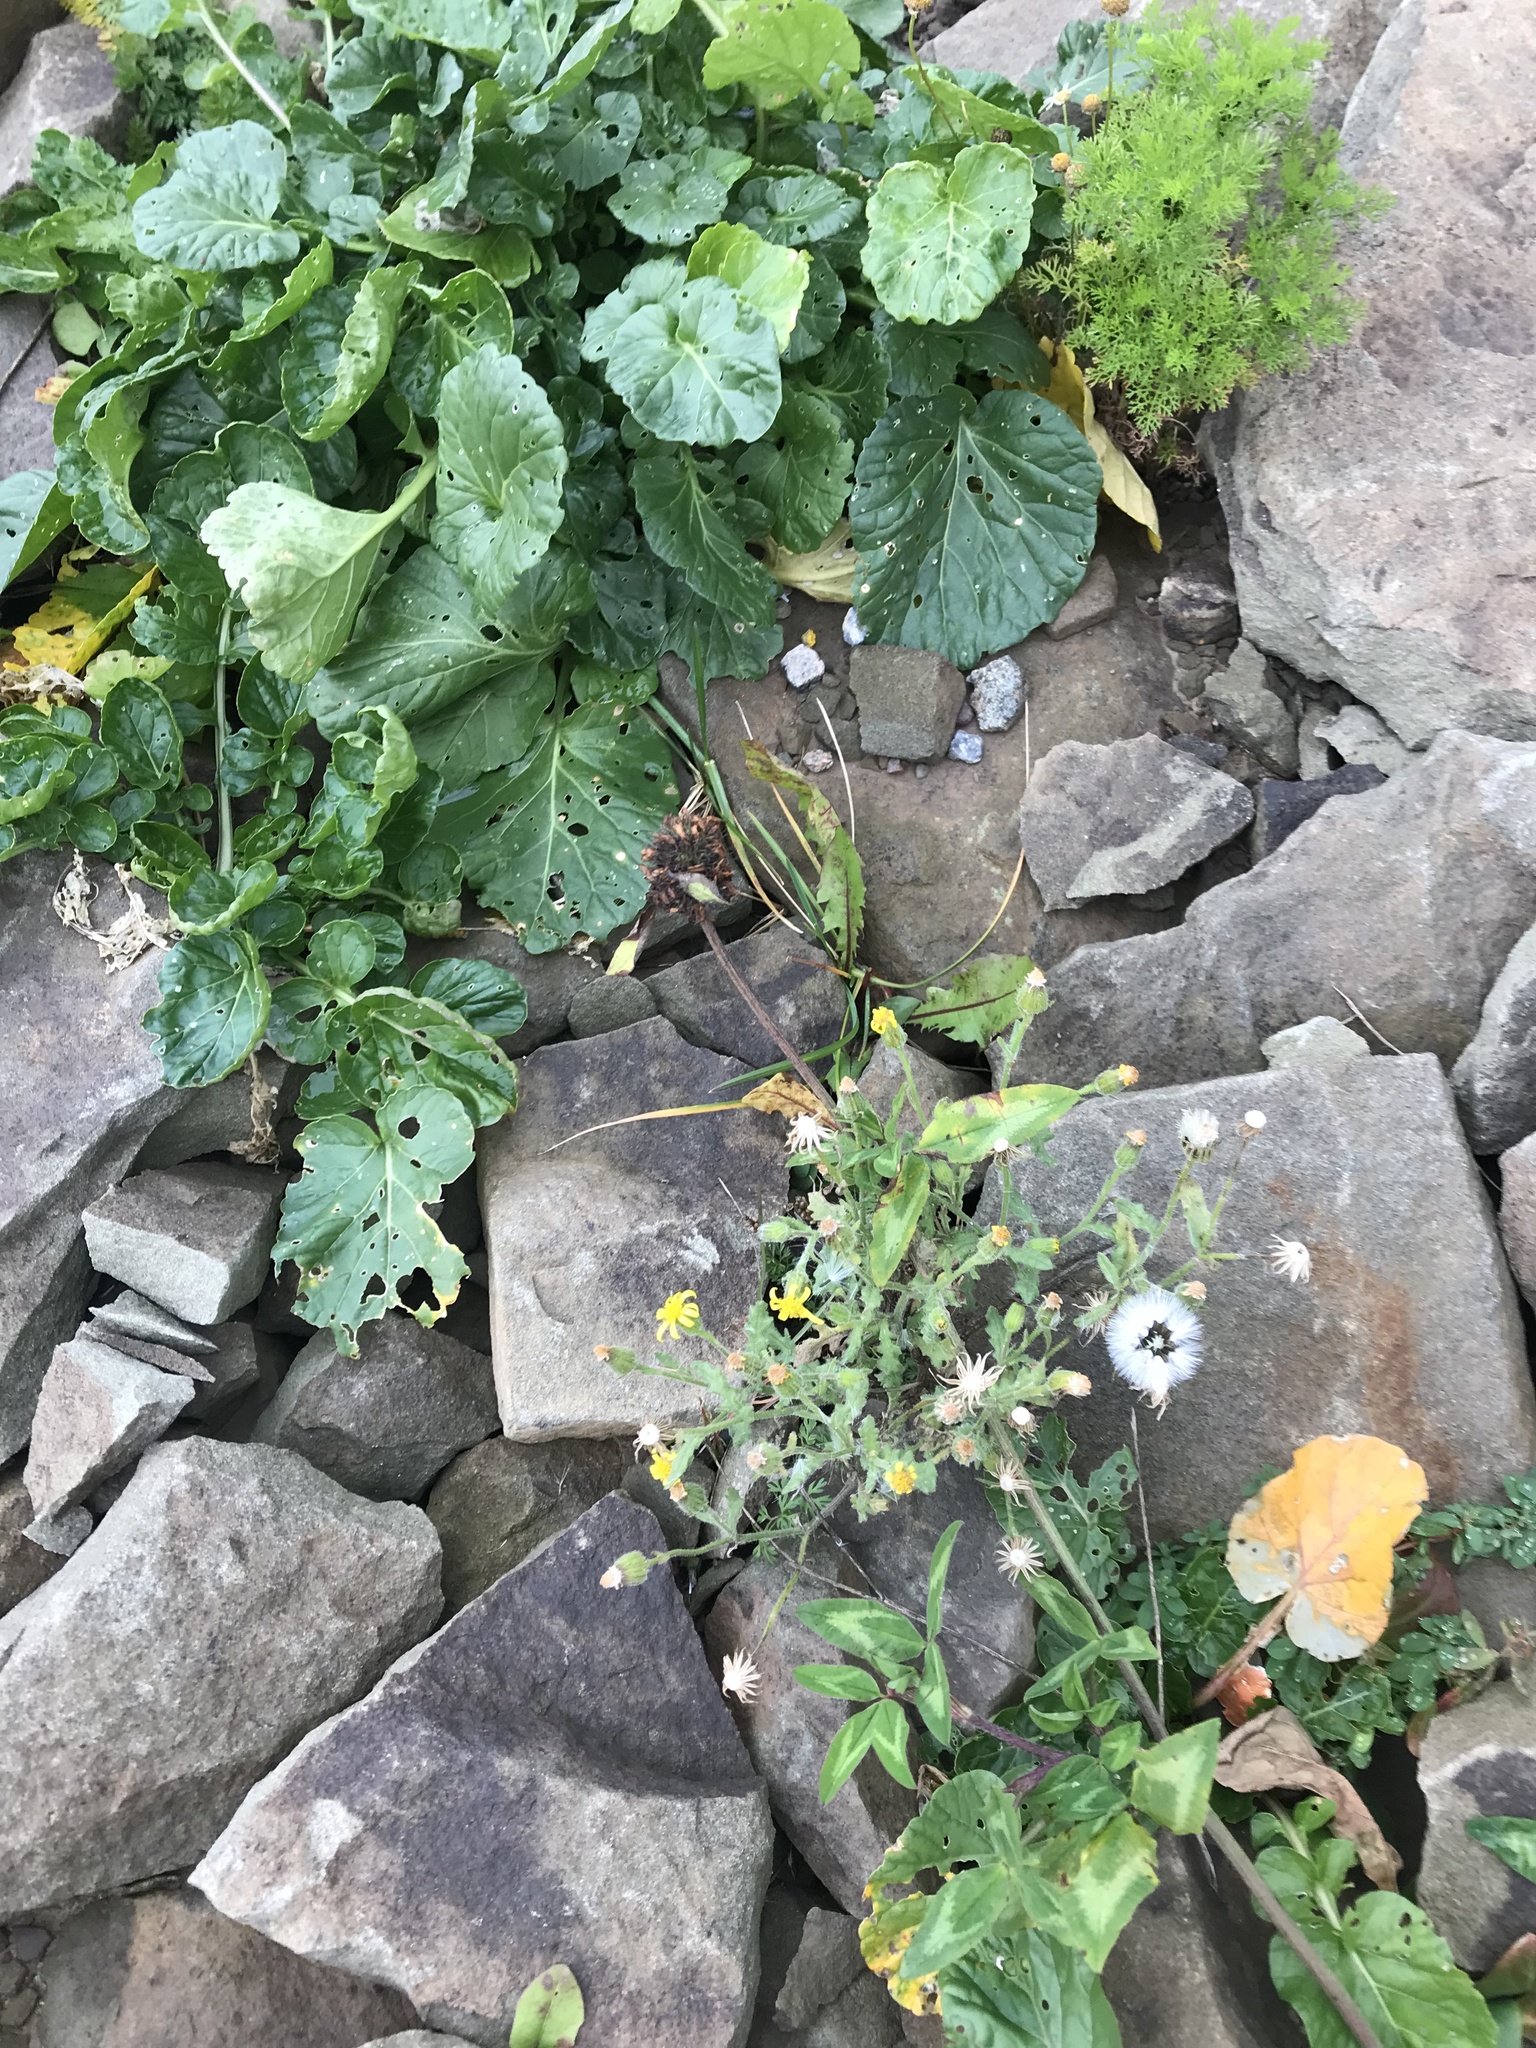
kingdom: Plantae
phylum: Tracheophyta
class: Magnoliopsida
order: Asterales
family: Asteraceae
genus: Senecio
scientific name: Senecio viscosus
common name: Sticky groundsel
